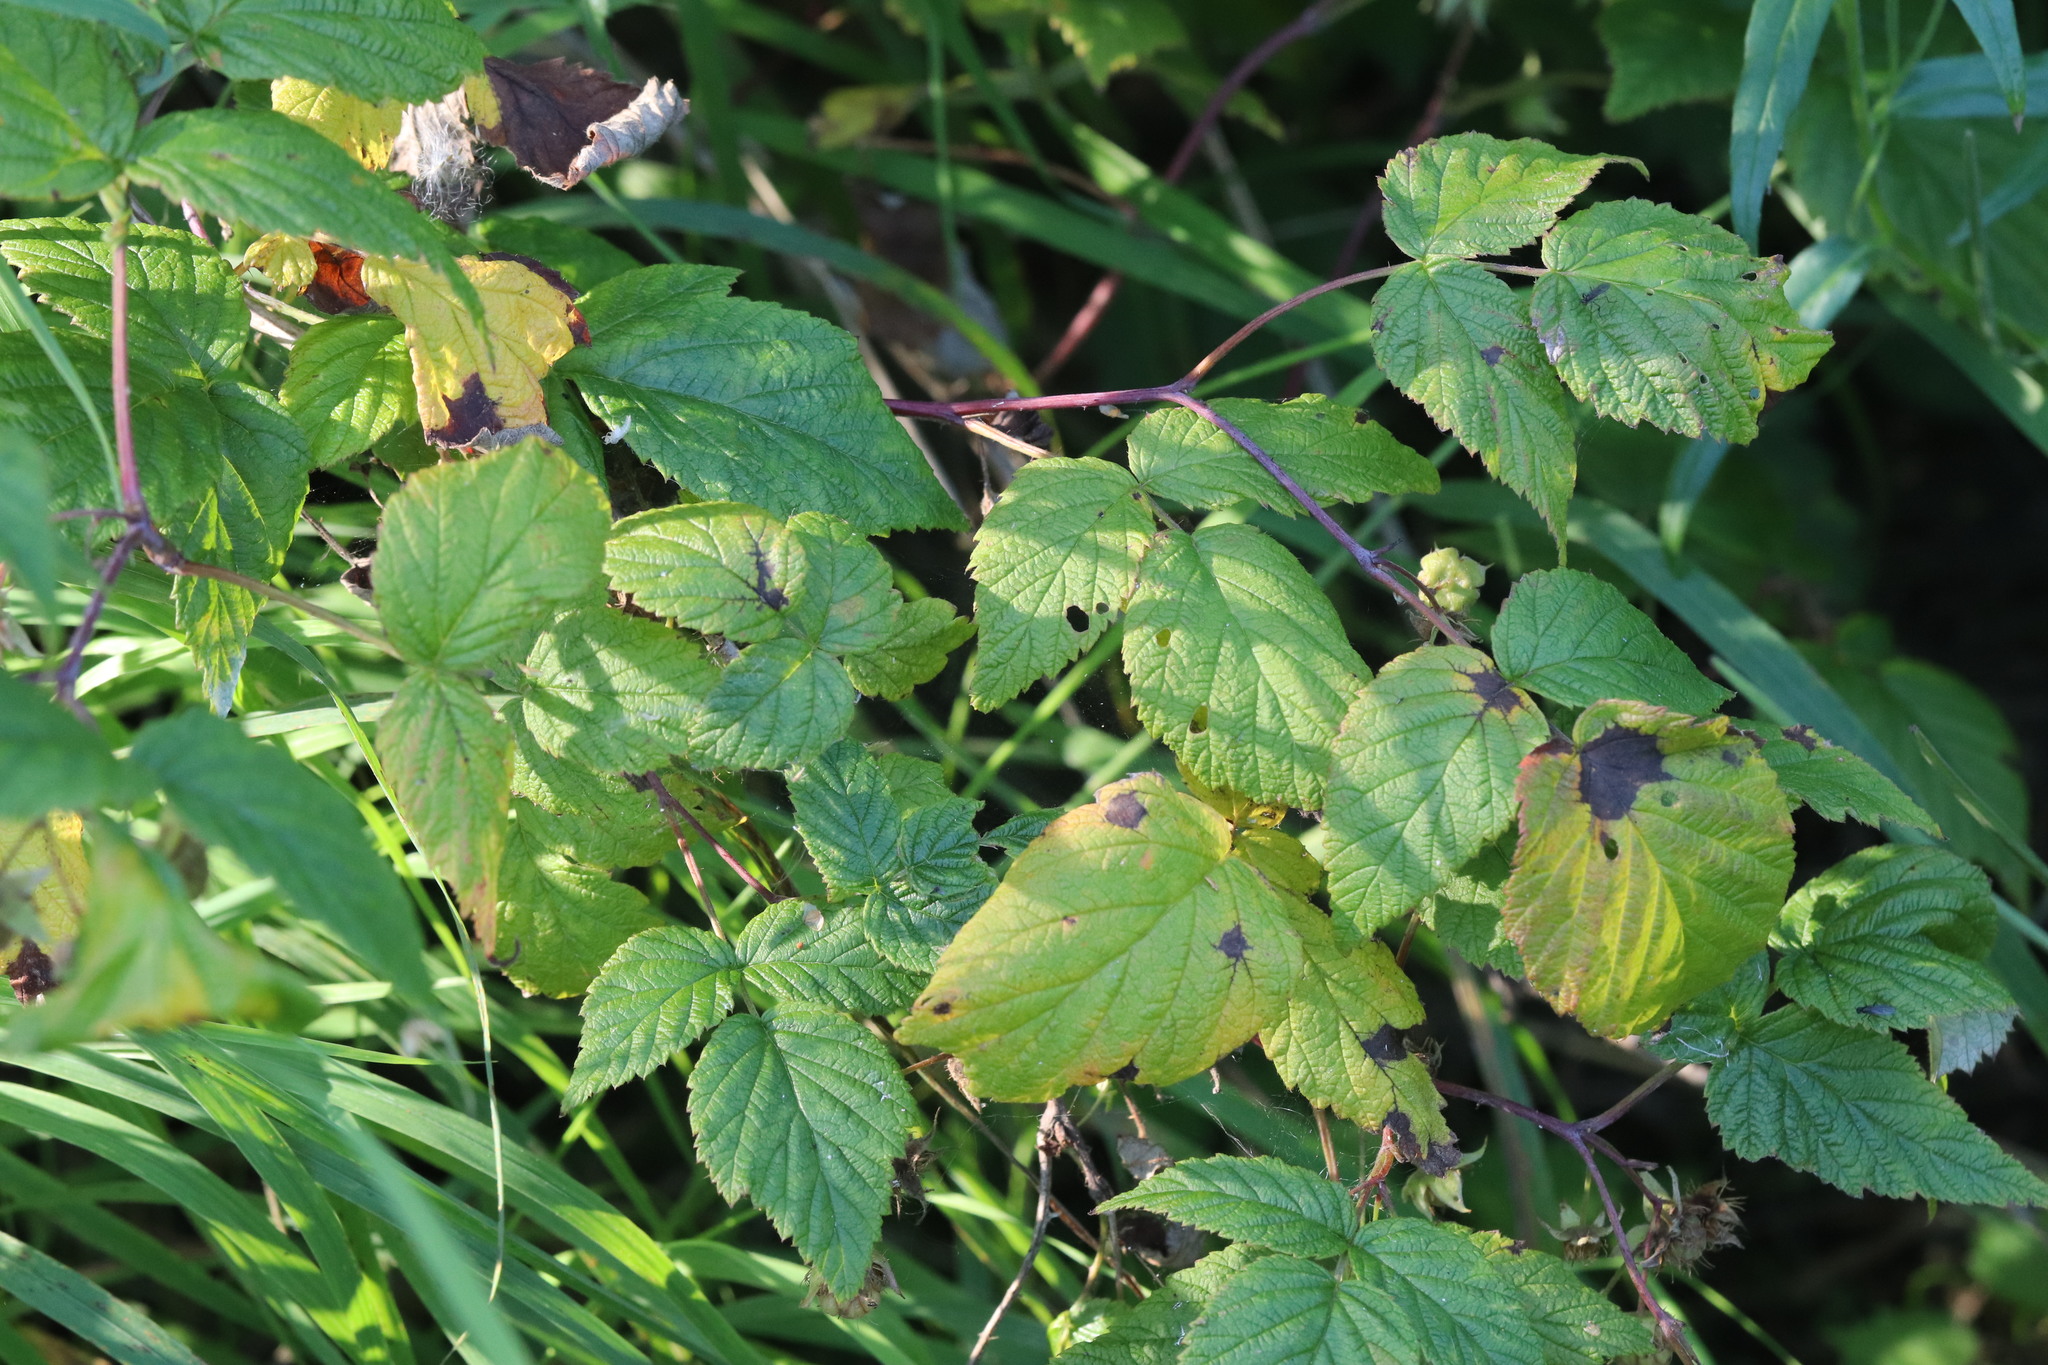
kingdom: Plantae
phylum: Tracheophyta
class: Magnoliopsida
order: Rosales
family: Rosaceae
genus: Rubus
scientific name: Rubus idaeus
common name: Raspberry
